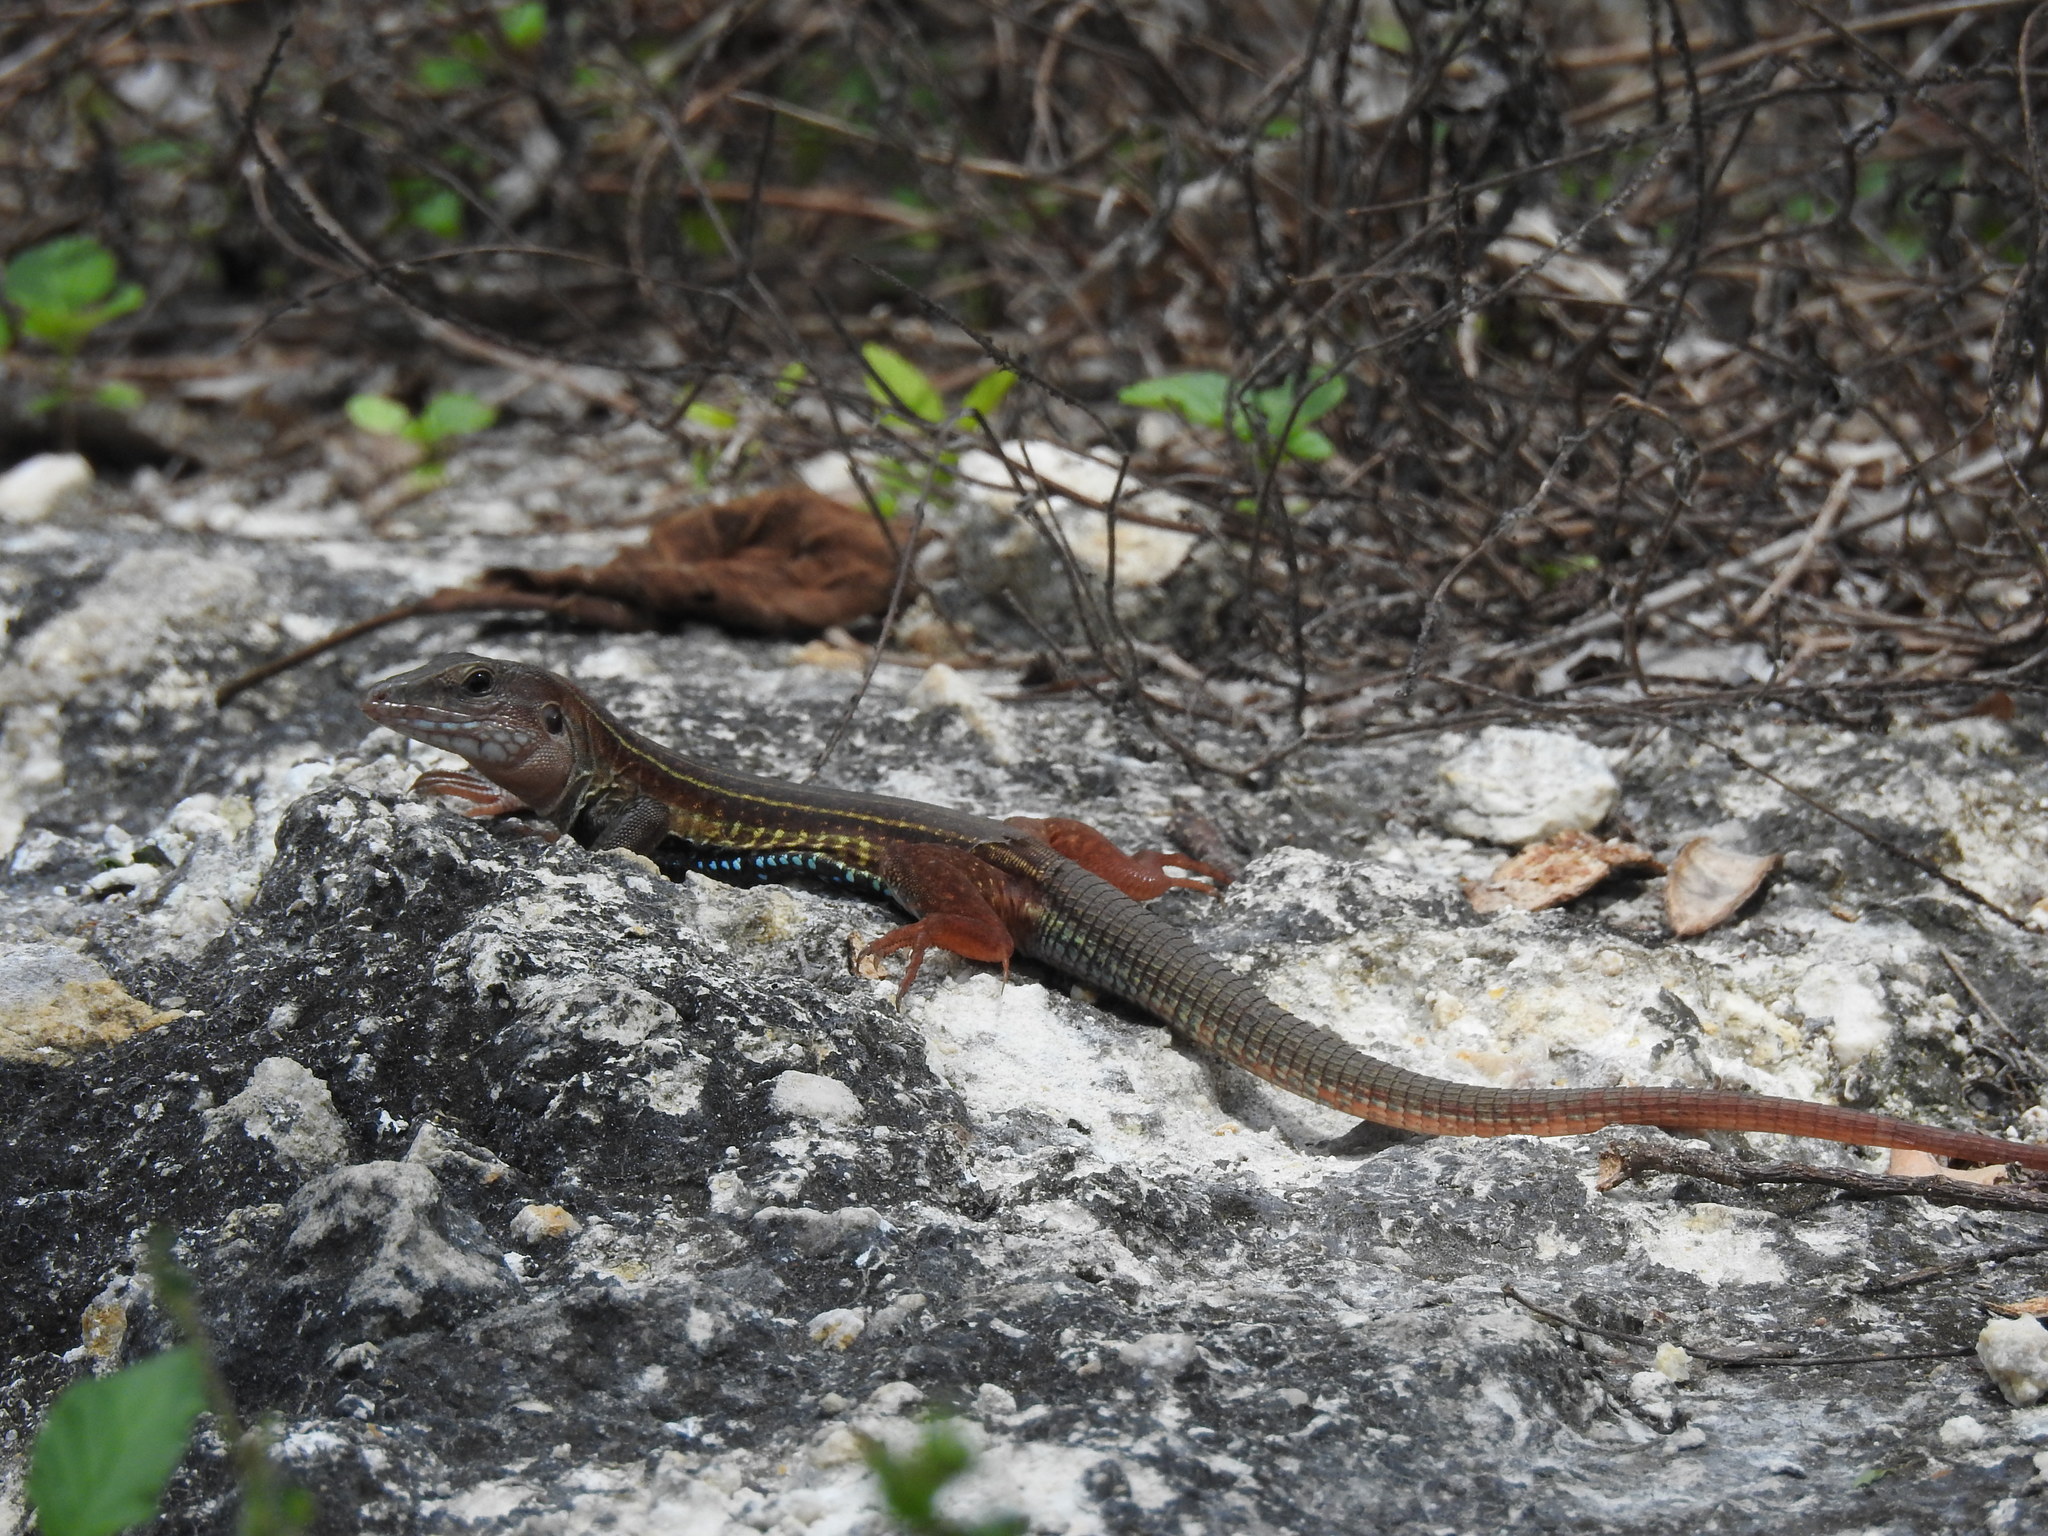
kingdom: Animalia
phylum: Chordata
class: Squamata
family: Teiidae
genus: Aspidoscelis
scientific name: Aspidoscelis angusticeps
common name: Yucatan whiptail
